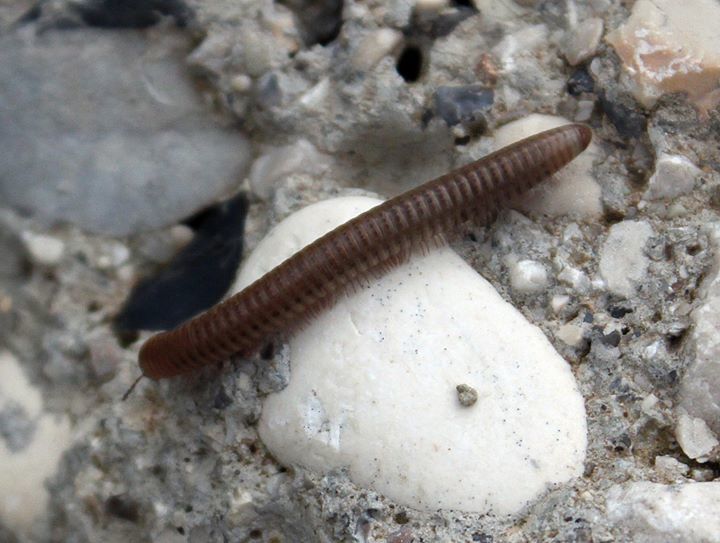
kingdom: Animalia
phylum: Arthropoda
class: Diplopoda
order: Julida
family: Julidae
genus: Pachyiulus
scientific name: Pachyiulus cattarensis
